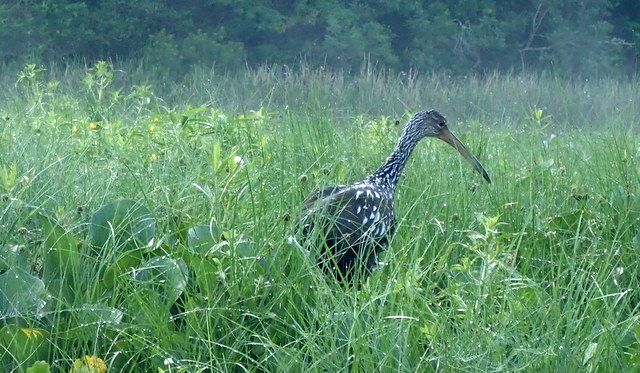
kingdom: Animalia
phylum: Chordata
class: Aves
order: Gruiformes
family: Aramidae
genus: Aramus
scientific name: Aramus guarauna
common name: Limpkin
